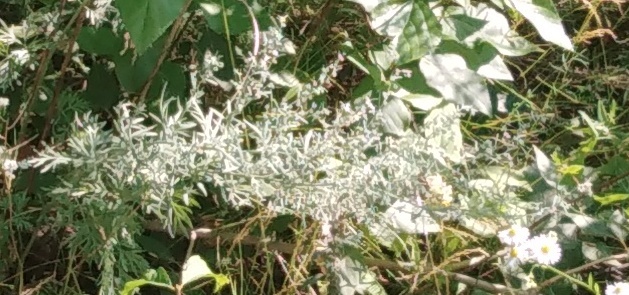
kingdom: Plantae
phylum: Tracheophyta
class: Magnoliopsida
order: Asterales
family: Asteraceae
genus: Artemisia
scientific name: Artemisia vulgaris
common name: Mugwort
